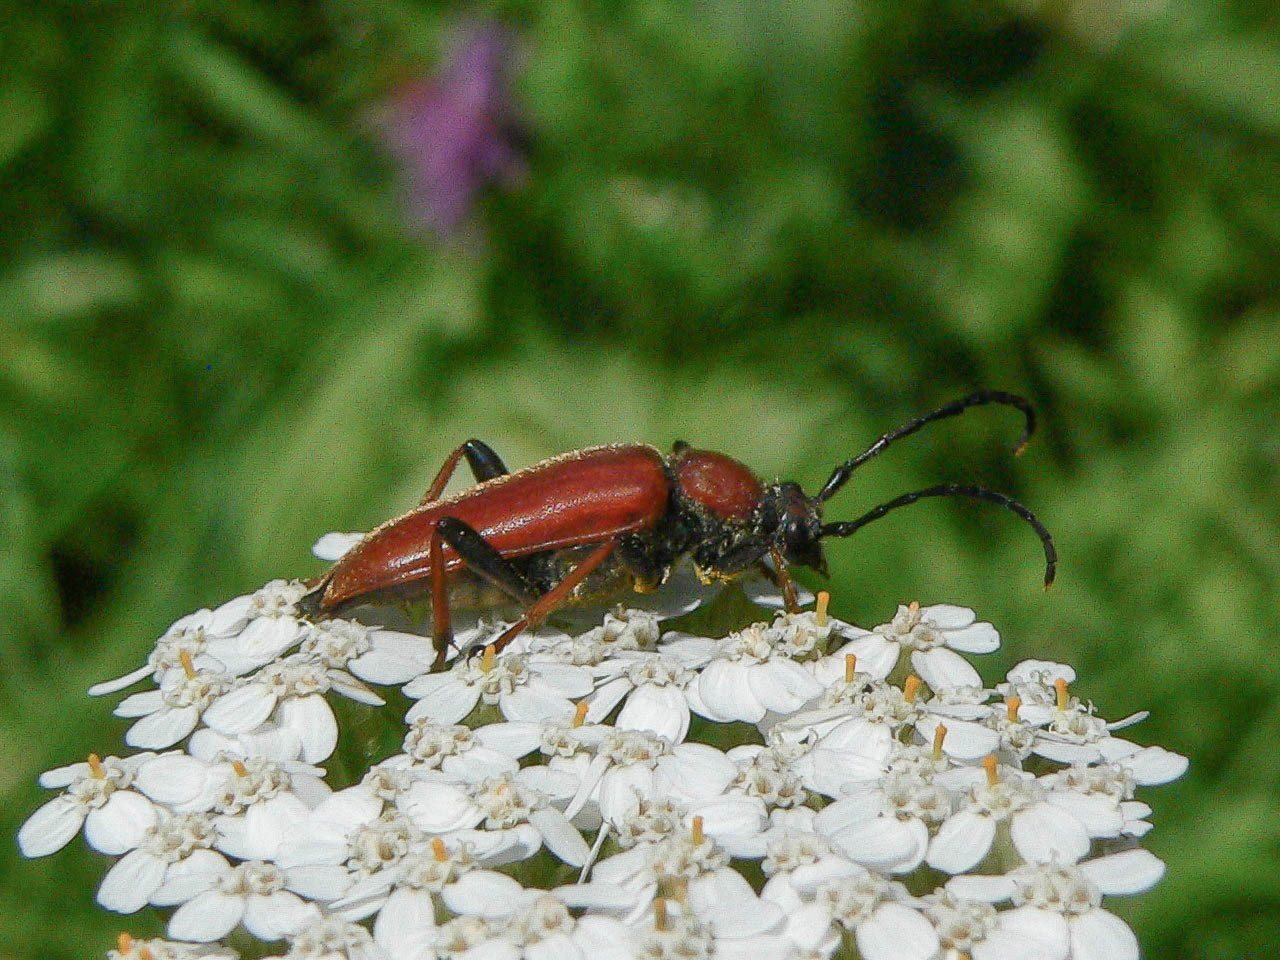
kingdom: Animalia
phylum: Arthropoda
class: Insecta
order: Coleoptera
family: Cerambycidae
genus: Stictoleptura
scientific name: Stictoleptura rubra
